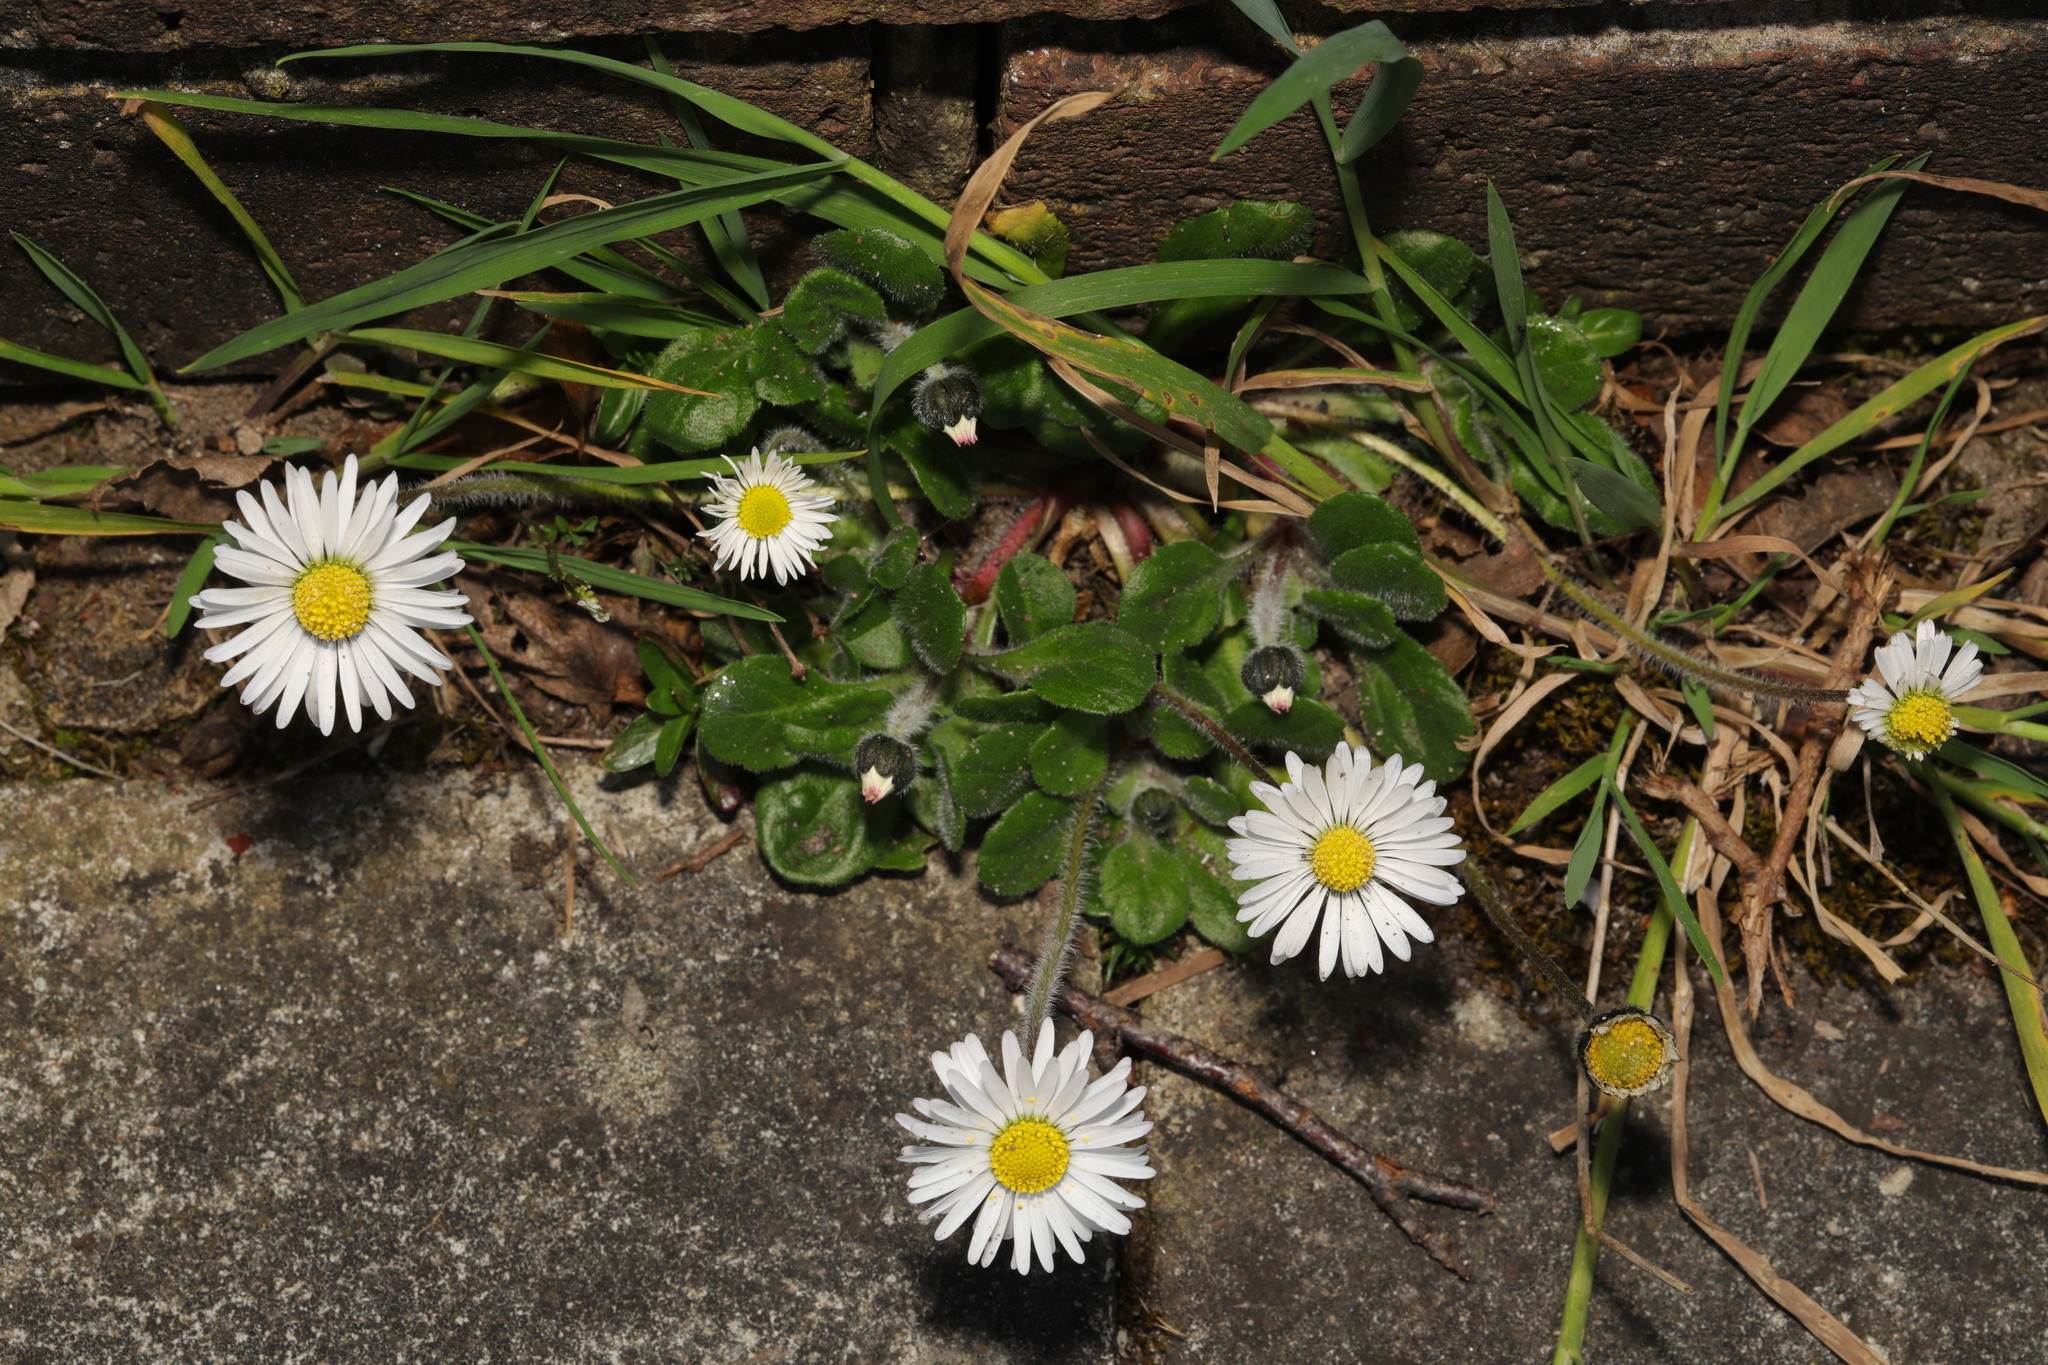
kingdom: Plantae
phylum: Tracheophyta
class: Magnoliopsida
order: Asterales
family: Asteraceae
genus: Bellis
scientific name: Bellis perennis
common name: Lawndaisy
